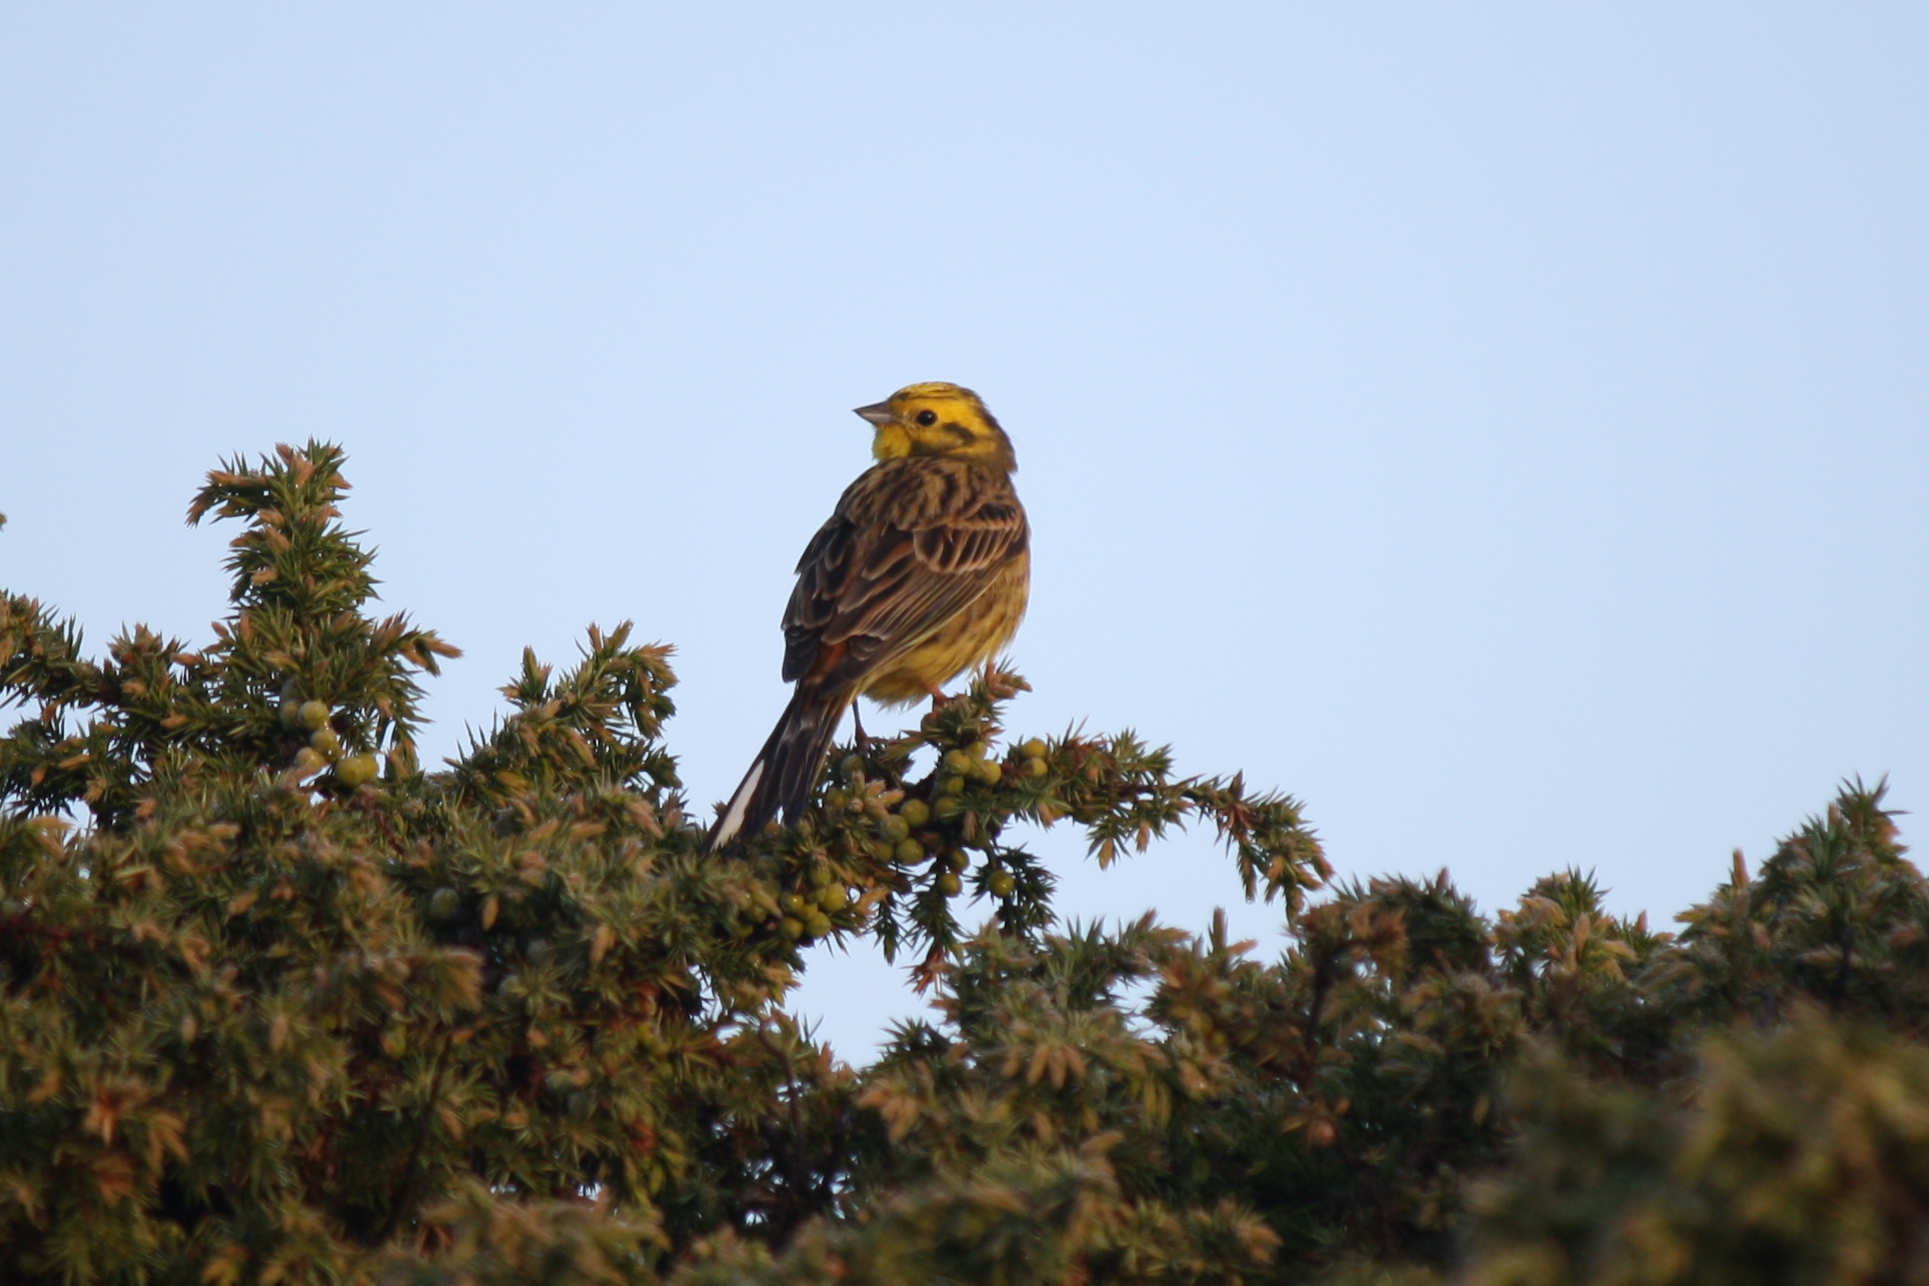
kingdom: Animalia
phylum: Chordata
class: Aves
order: Passeriformes
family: Emberizidae
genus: Emberiza
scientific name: Emberiza citrinella
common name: Yellowhammer
